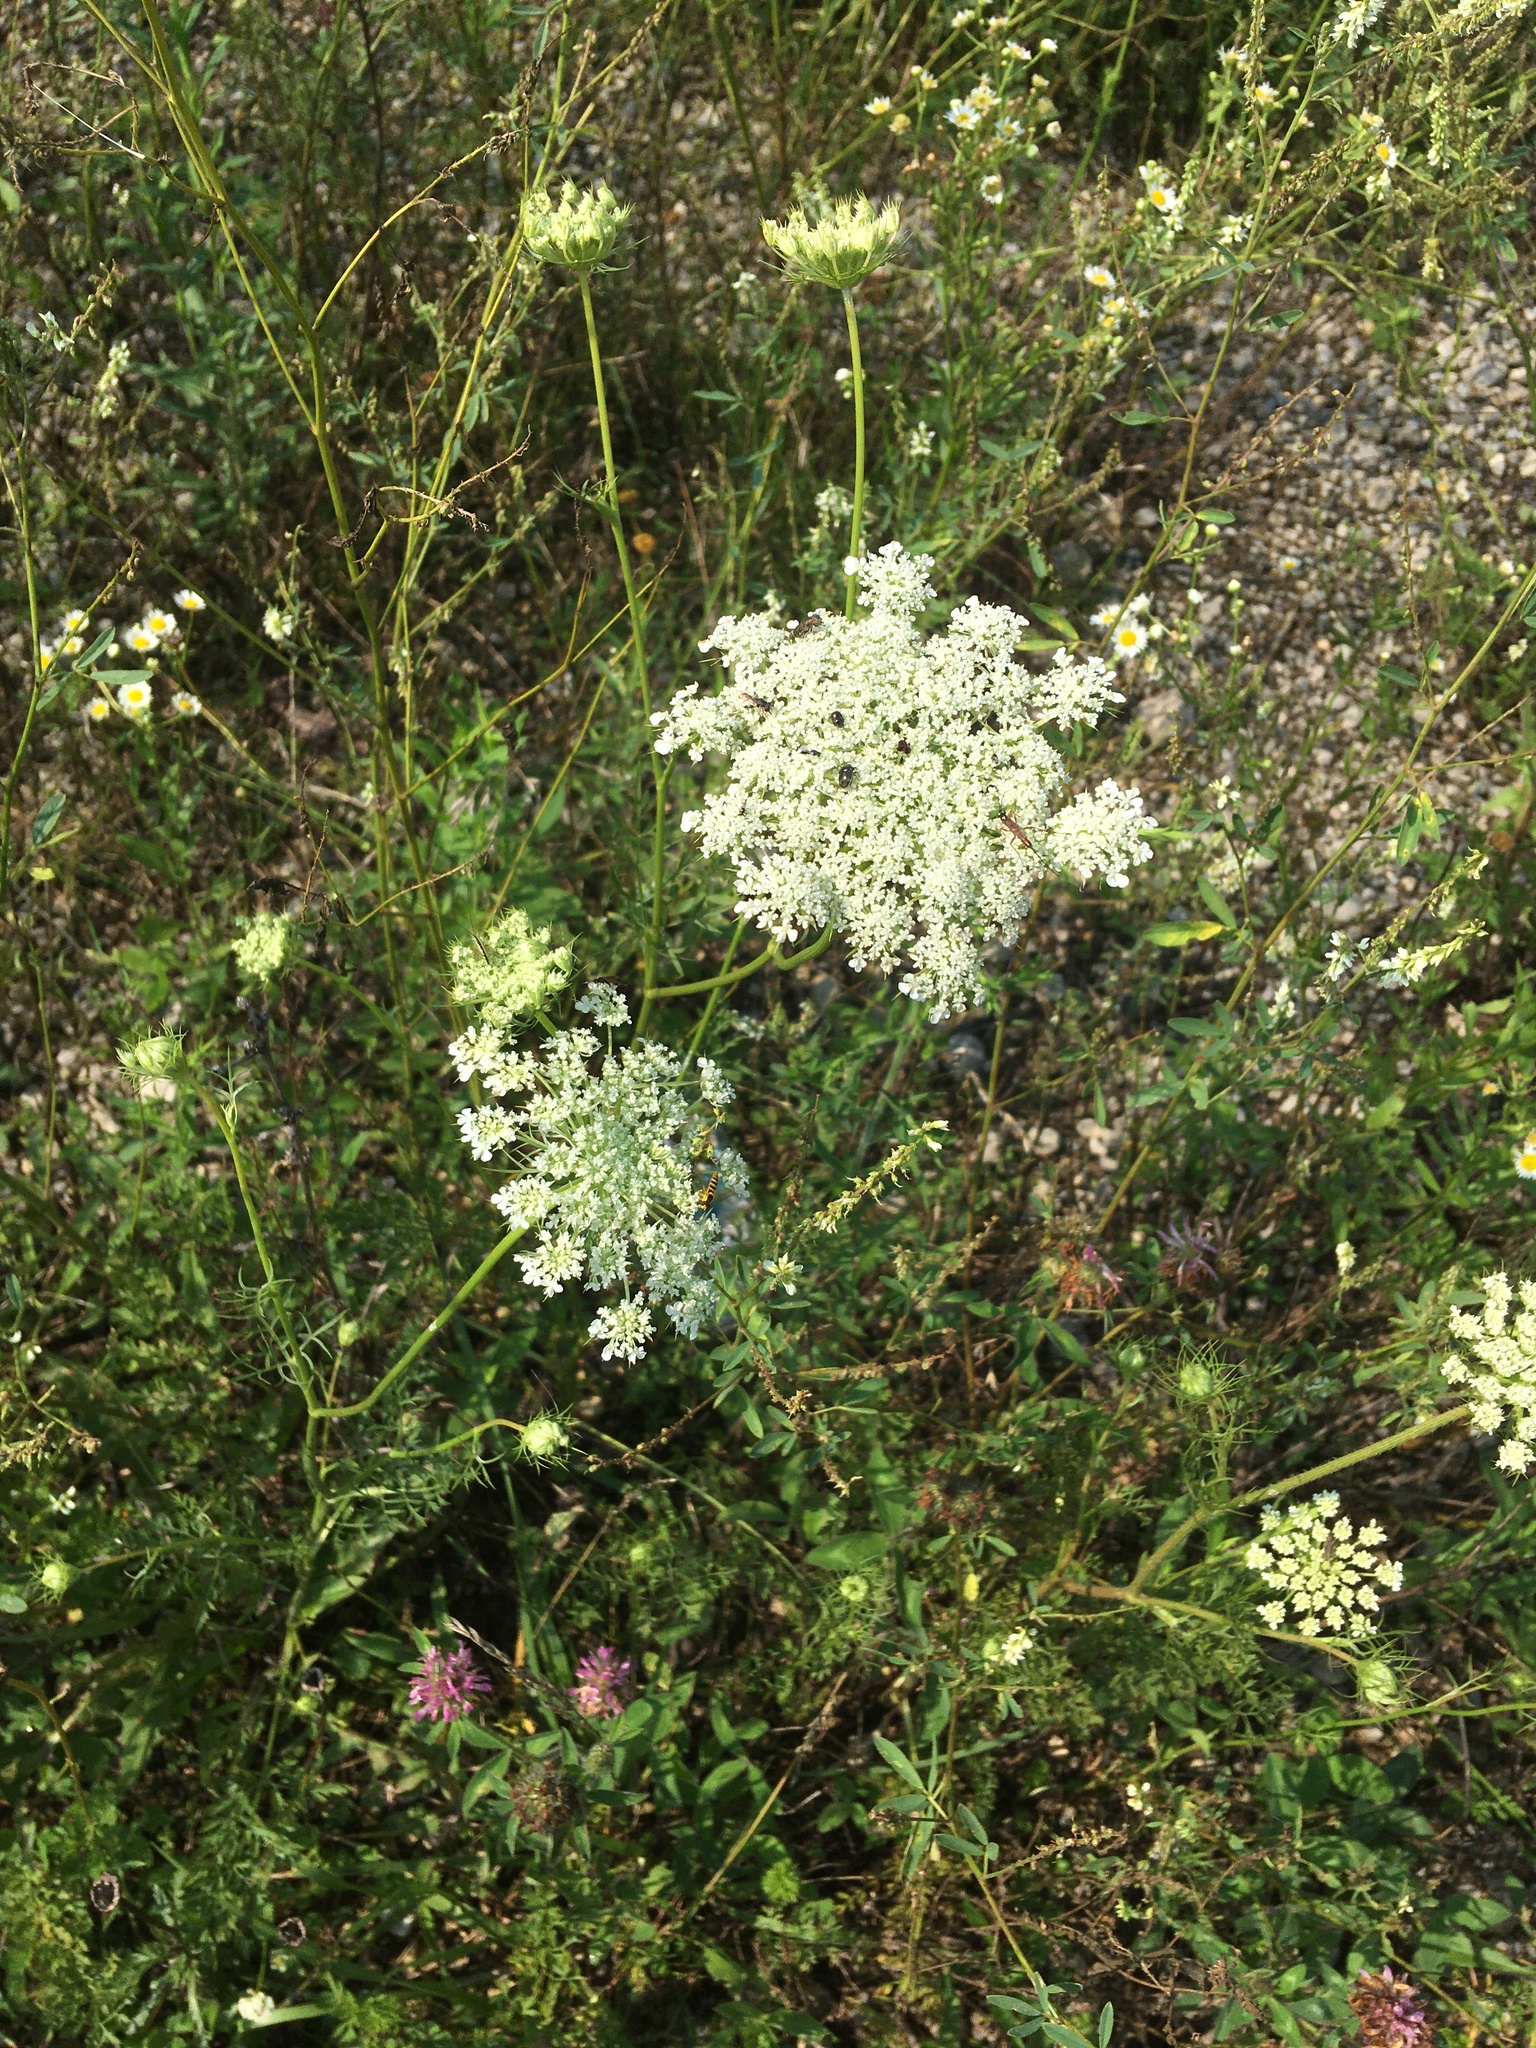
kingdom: Plantae
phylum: Tracheophyta
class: Magnoliopsida
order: Apiales
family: Apiaceae
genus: Daucus
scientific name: Daucus carota
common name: Wild carrot
